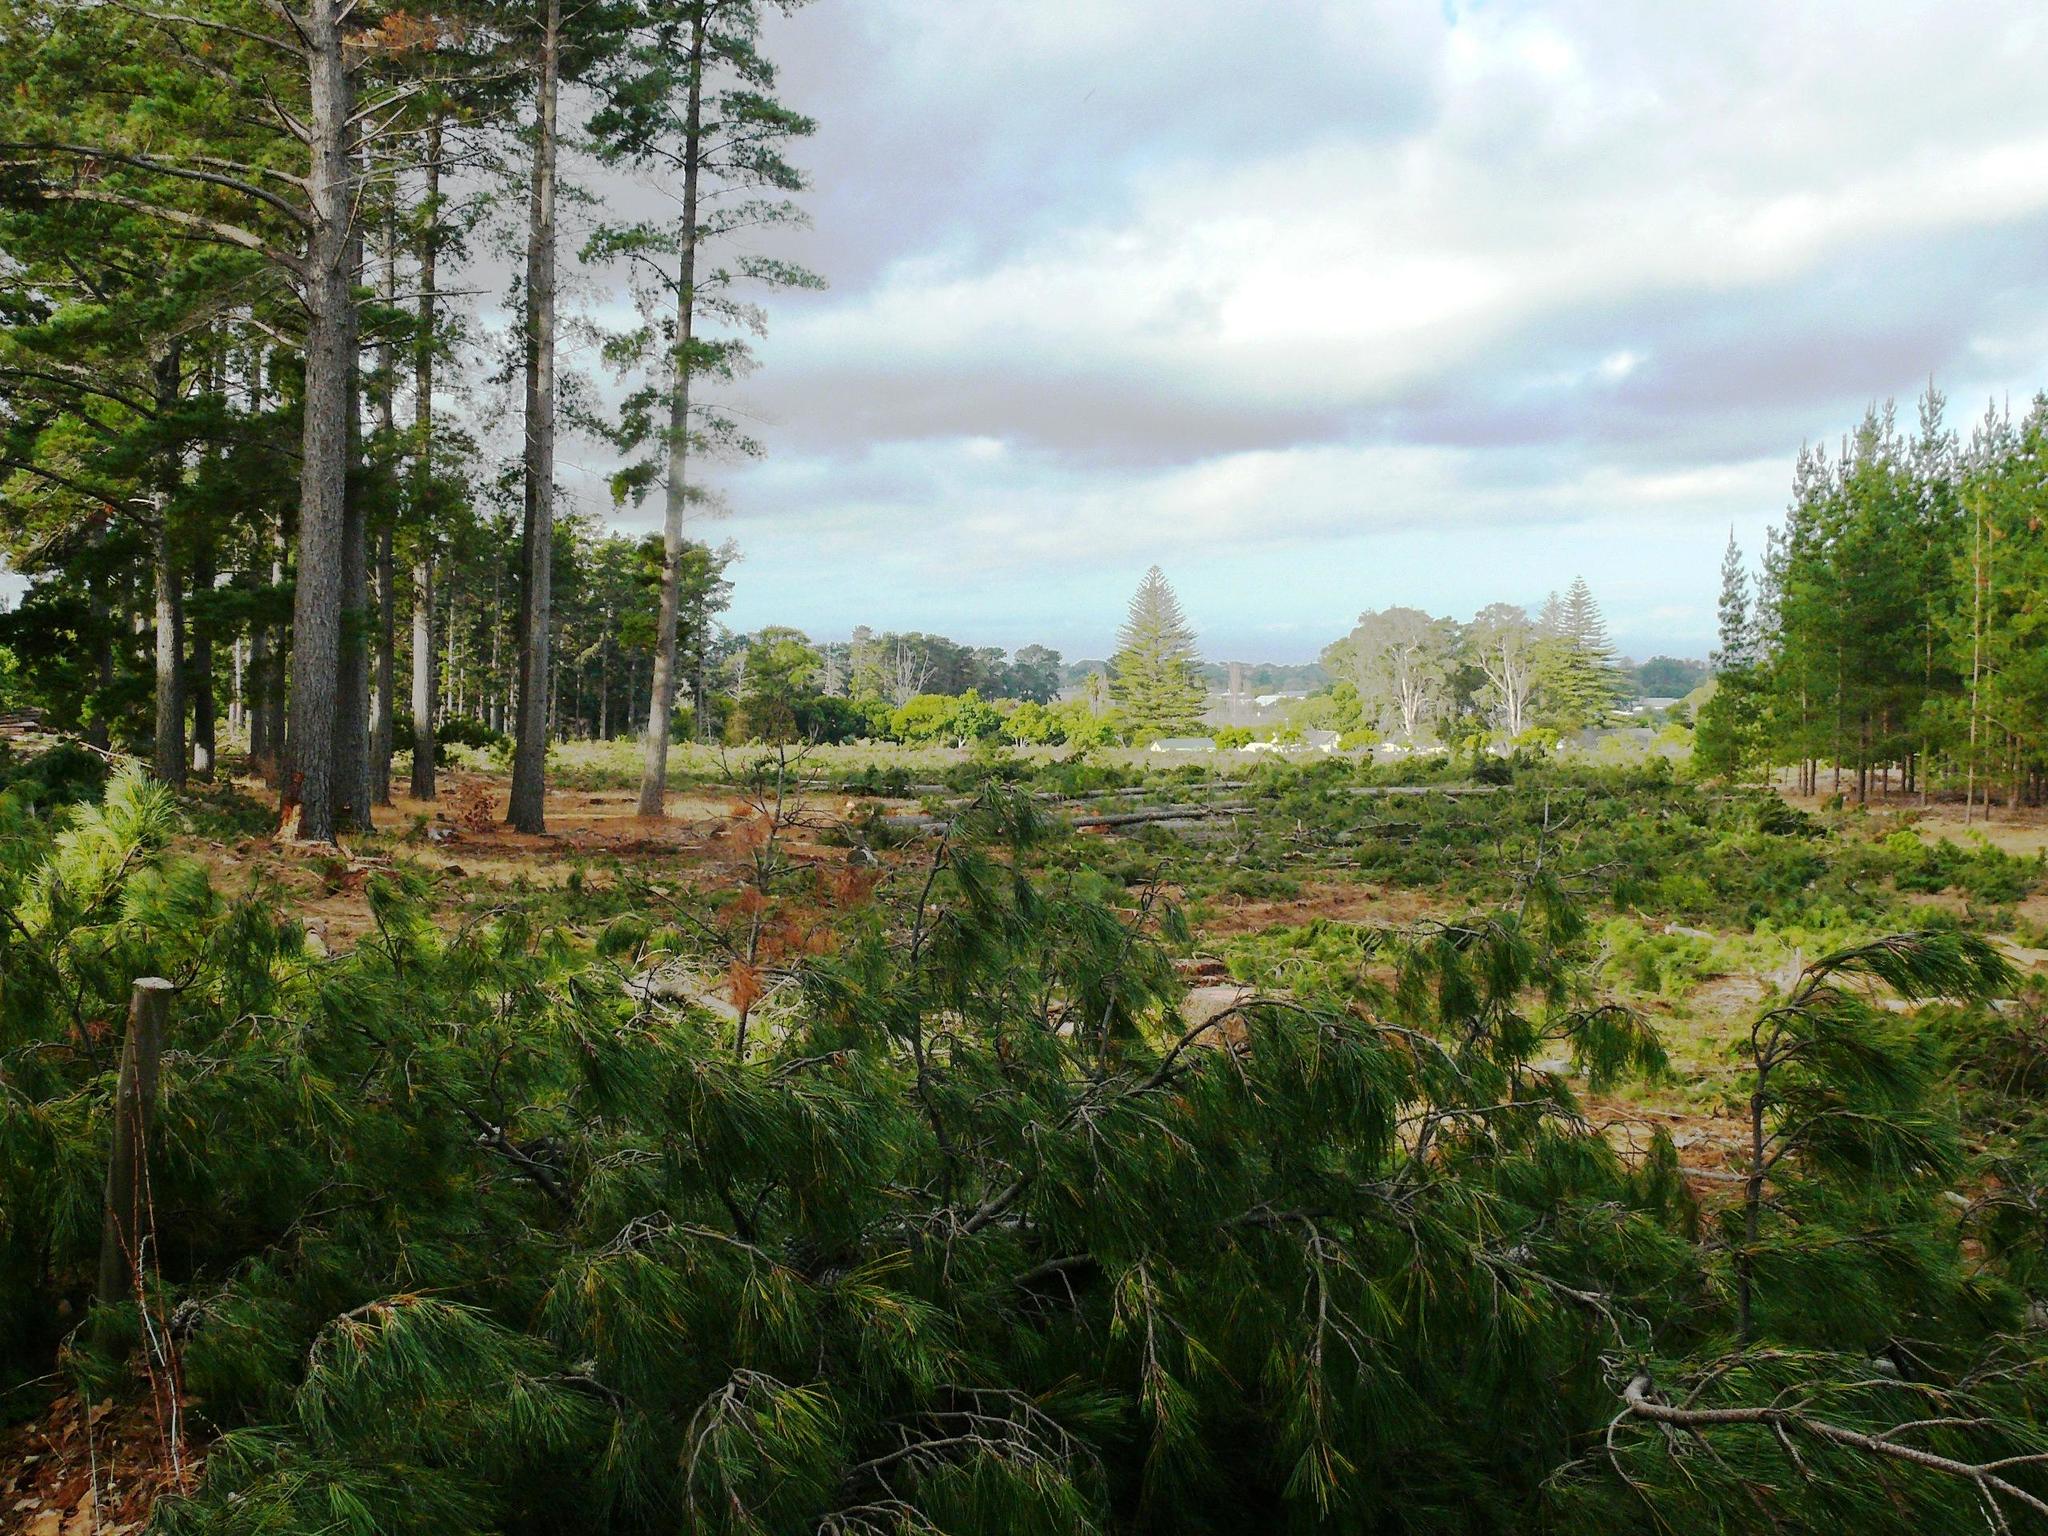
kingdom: Plantae
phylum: Tracheophyta
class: Pinopsida
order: Pinales
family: Pinaceae
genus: Pinus
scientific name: Pinus radiata
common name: Monterey pine
